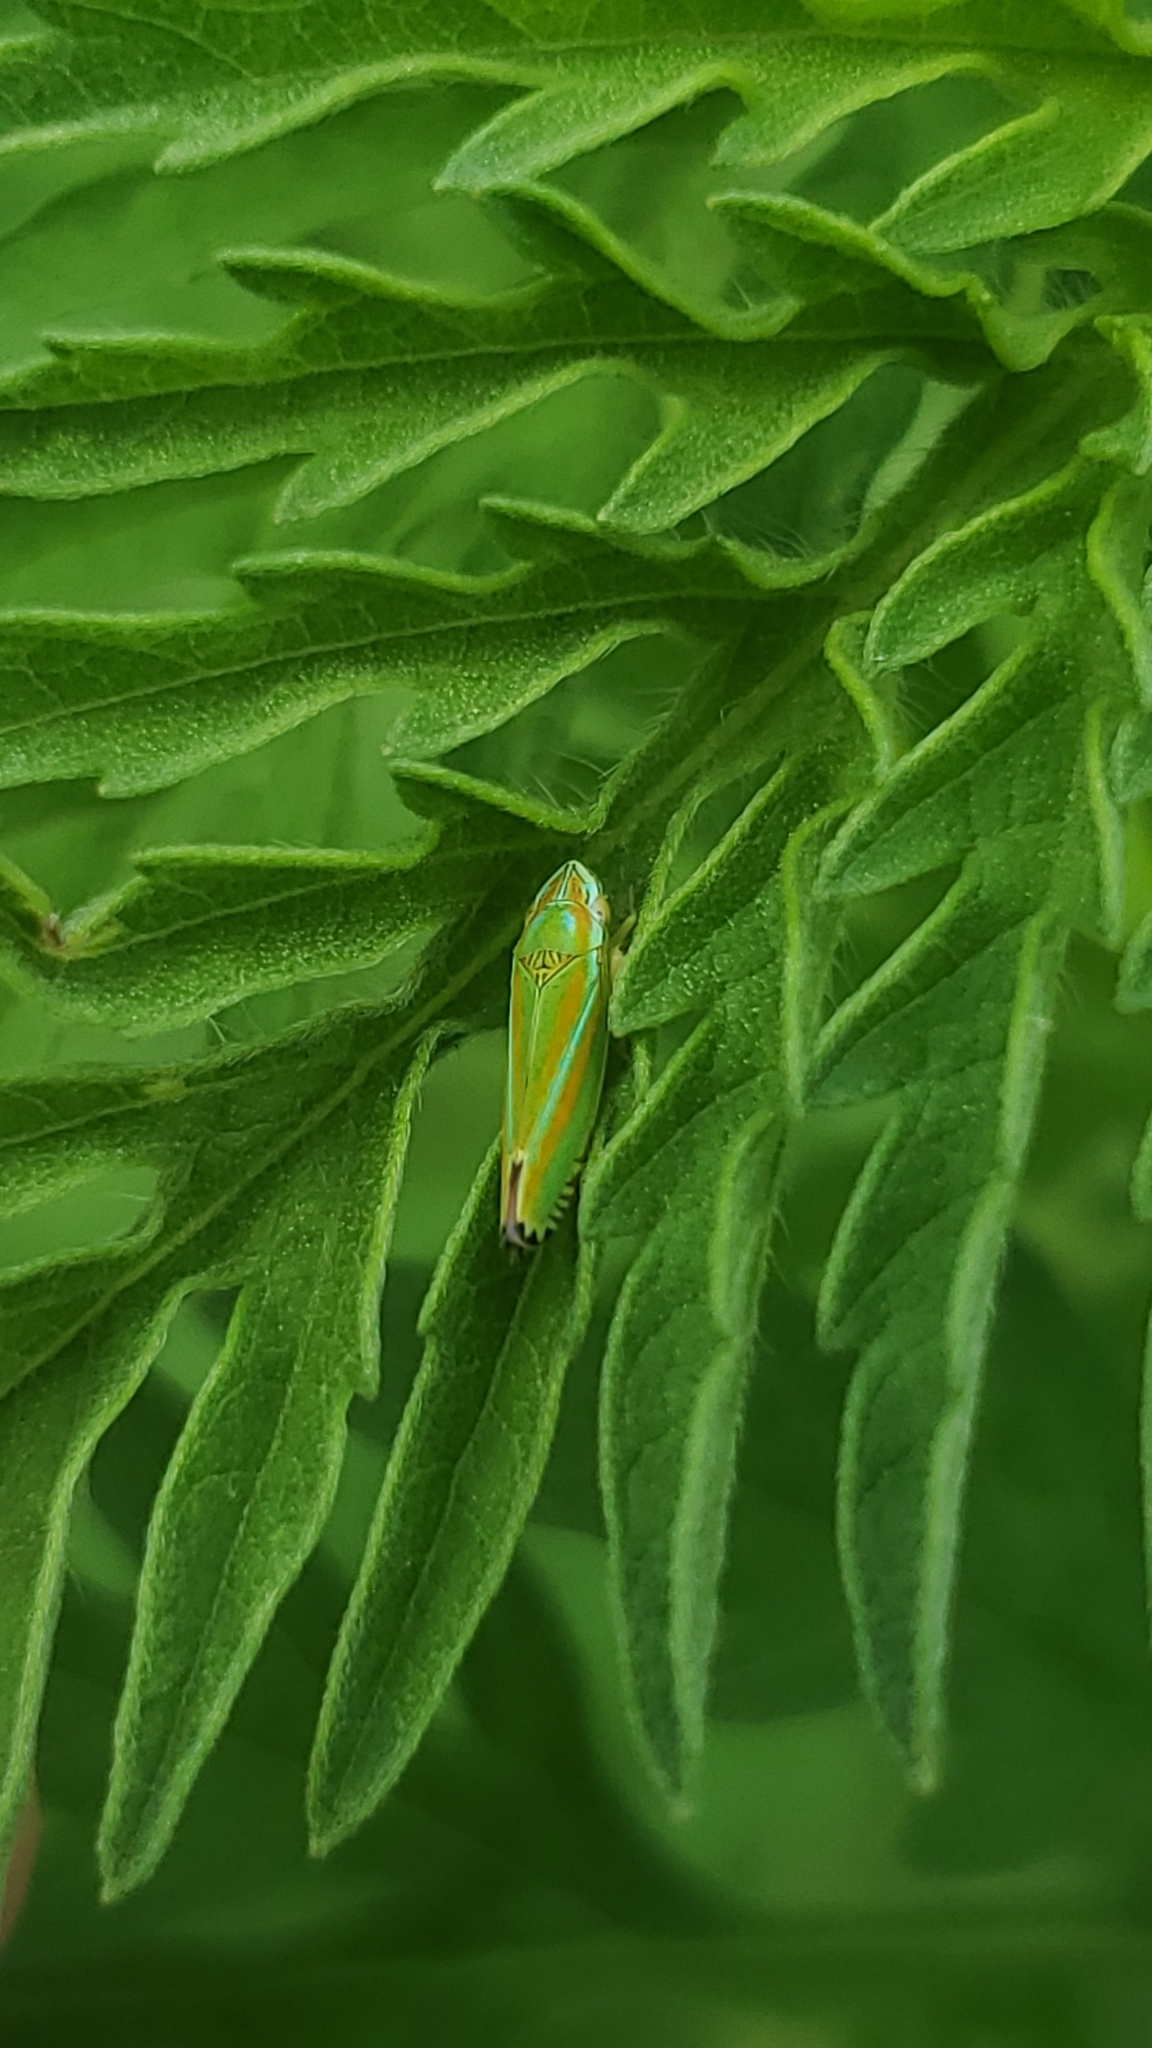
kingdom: Animalia
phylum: Arthropoda
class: Insecta
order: Hemiptera
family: Cicadellidae
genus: Graphocephala
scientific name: Graphocephala versuta
